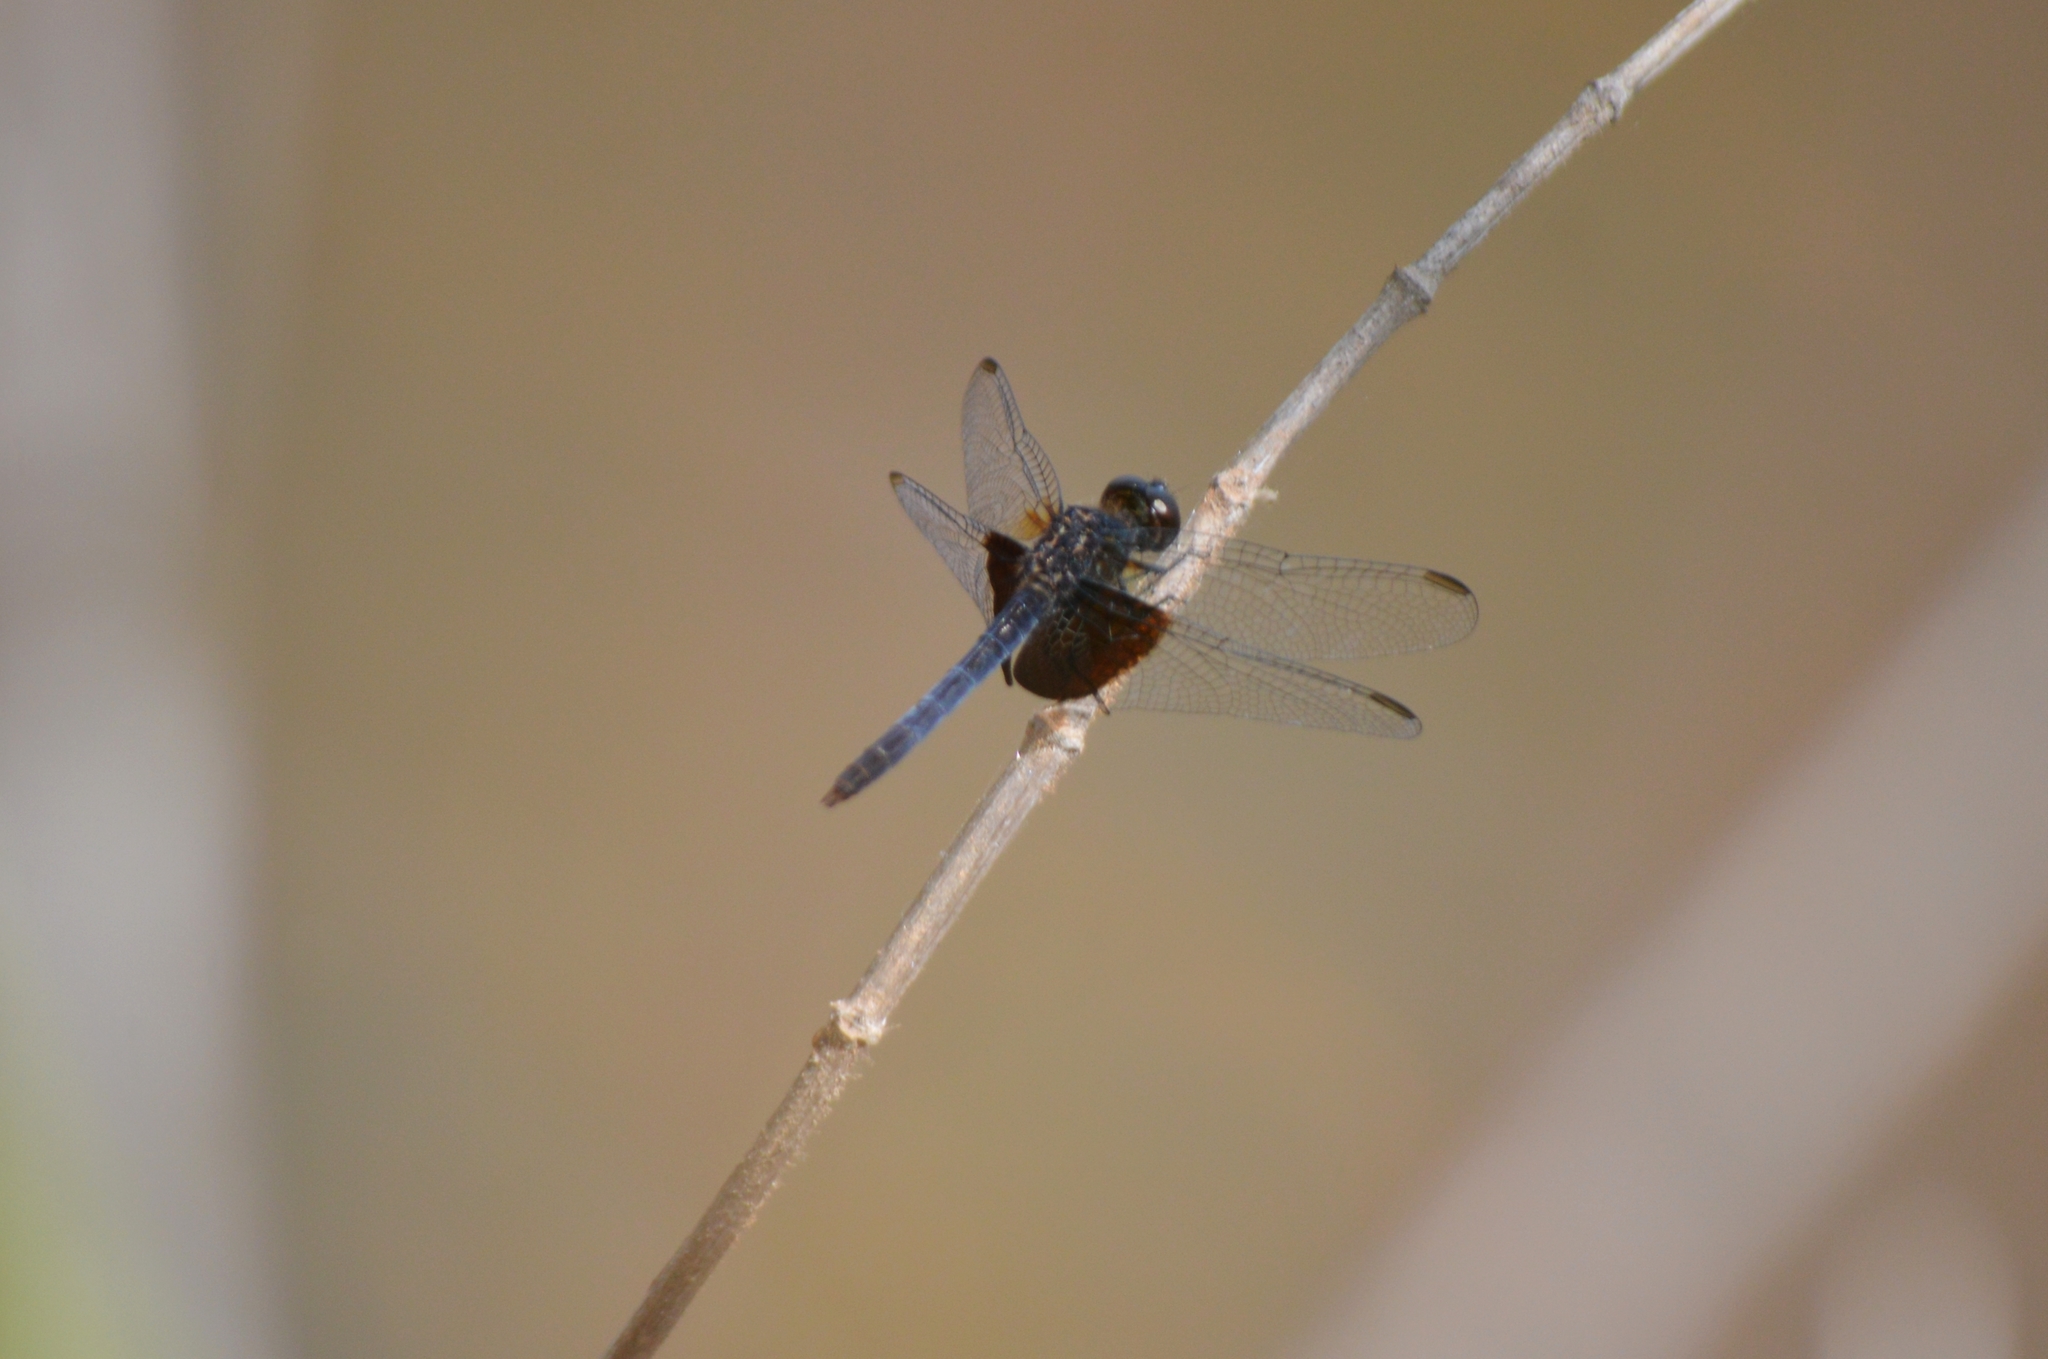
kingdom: Animalia
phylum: Arthropoda
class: Insecta
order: Odonata
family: Libellulidae
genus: Erythrodiplax
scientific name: Erythrodiplax latimaculata
